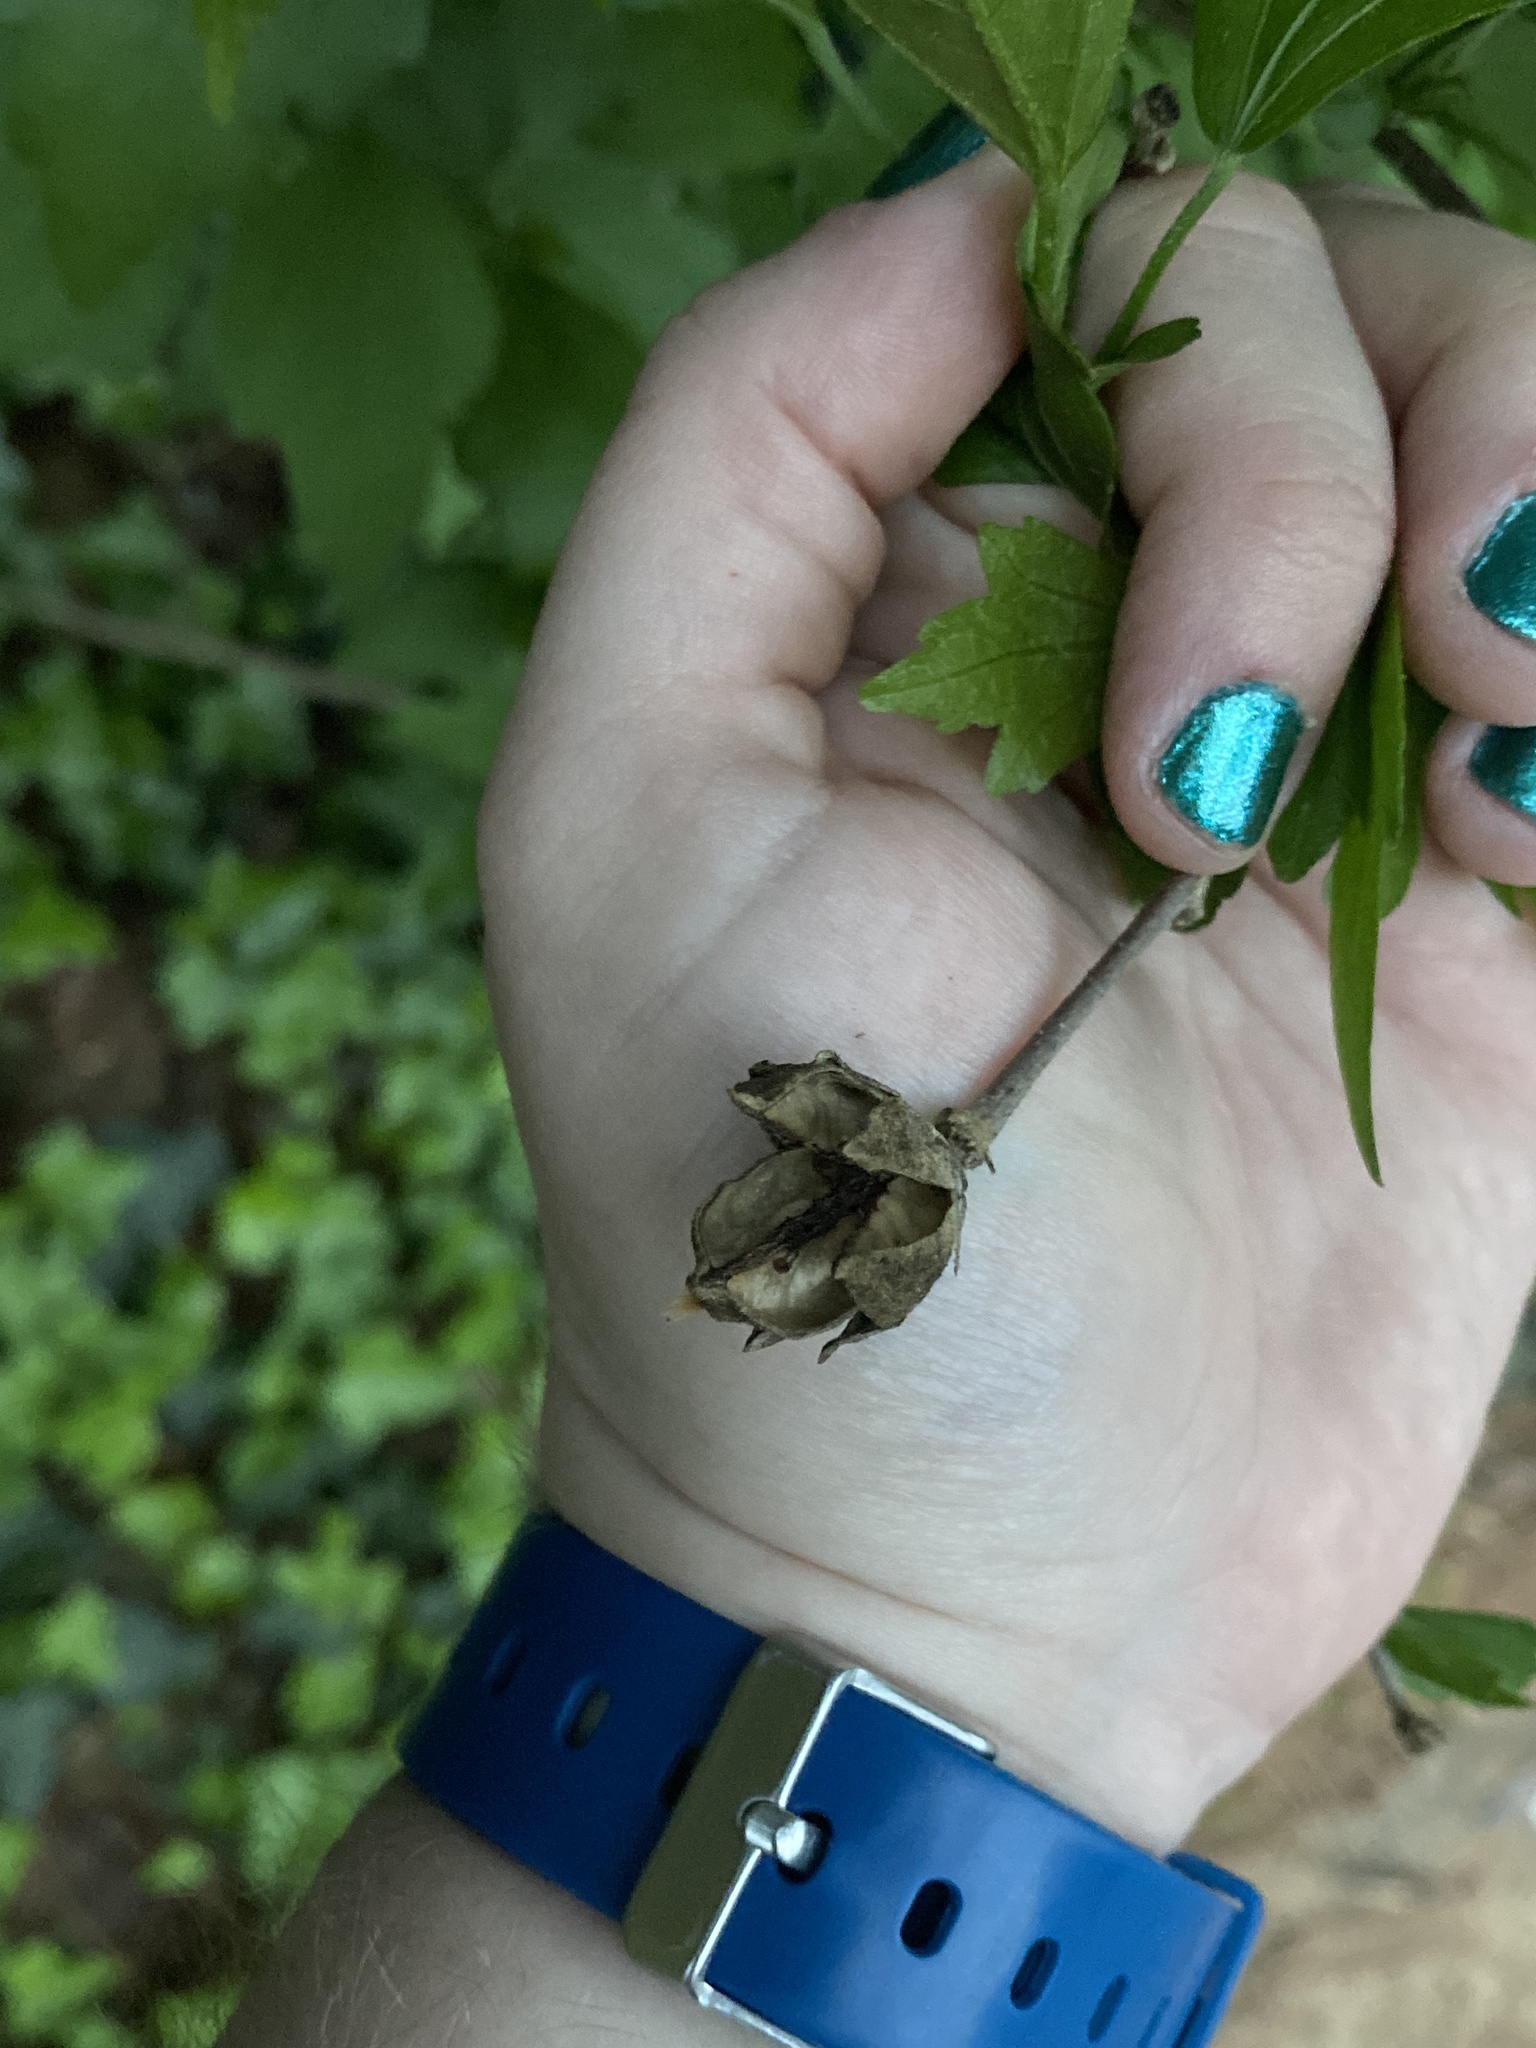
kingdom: Plantae
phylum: Tracheophyta
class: Magnoliopsida
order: Malvales
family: Malvaceae
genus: Hibiscus
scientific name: Hibiscus syriacus
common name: Syrian ketmia
